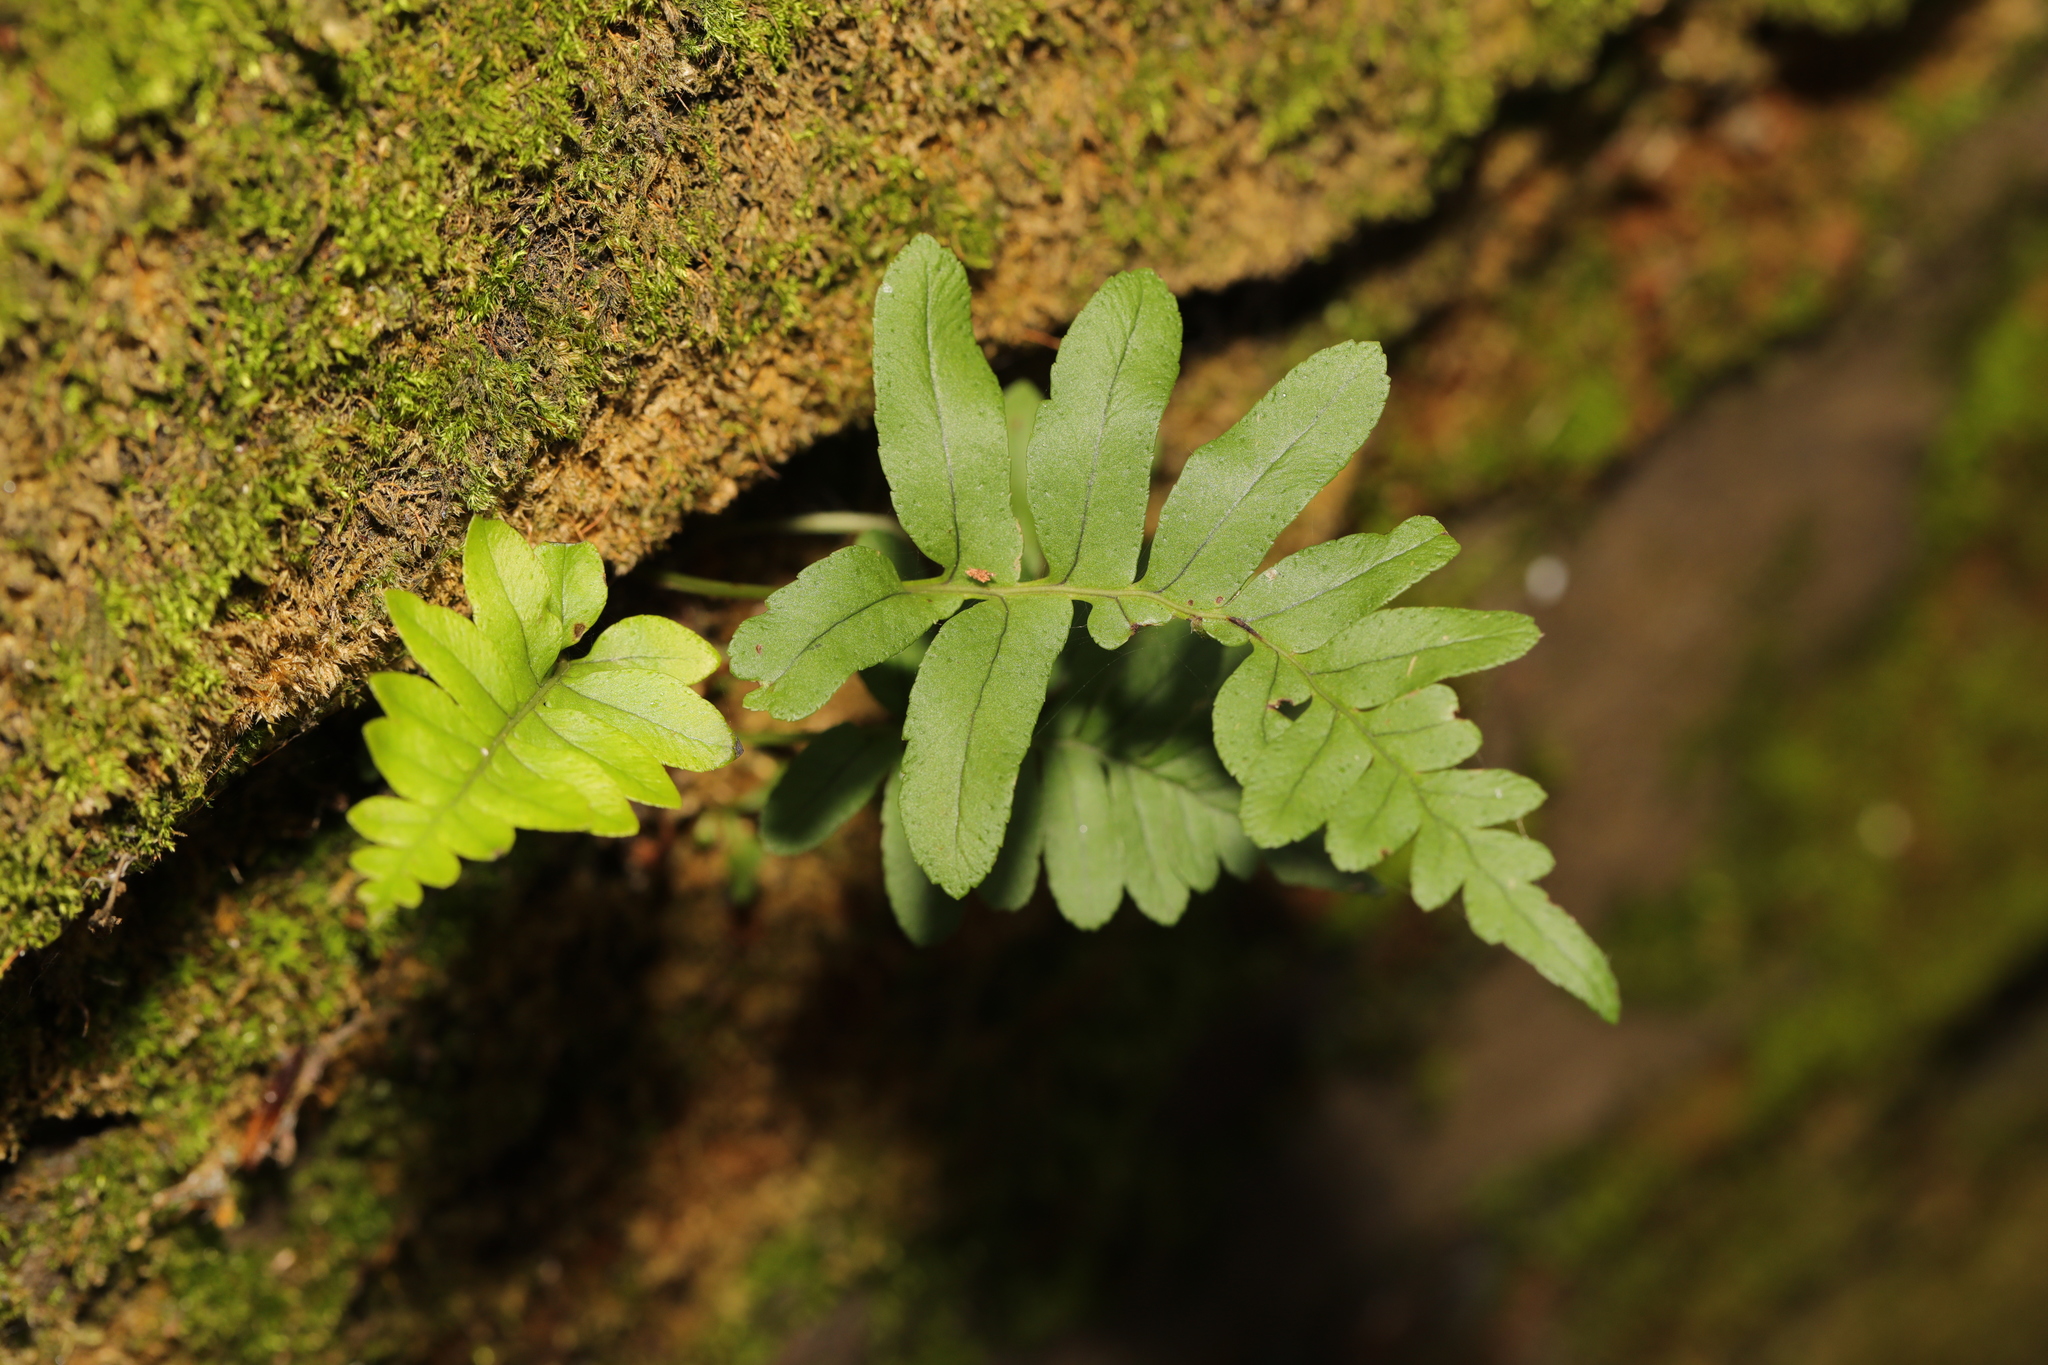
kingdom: Plantae
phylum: Tracheophyta
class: Polypodiopsida
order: Polypodiales
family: Polypodiaceae
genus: Polypodium
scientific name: Polypodium vulgare
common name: Common polypody
